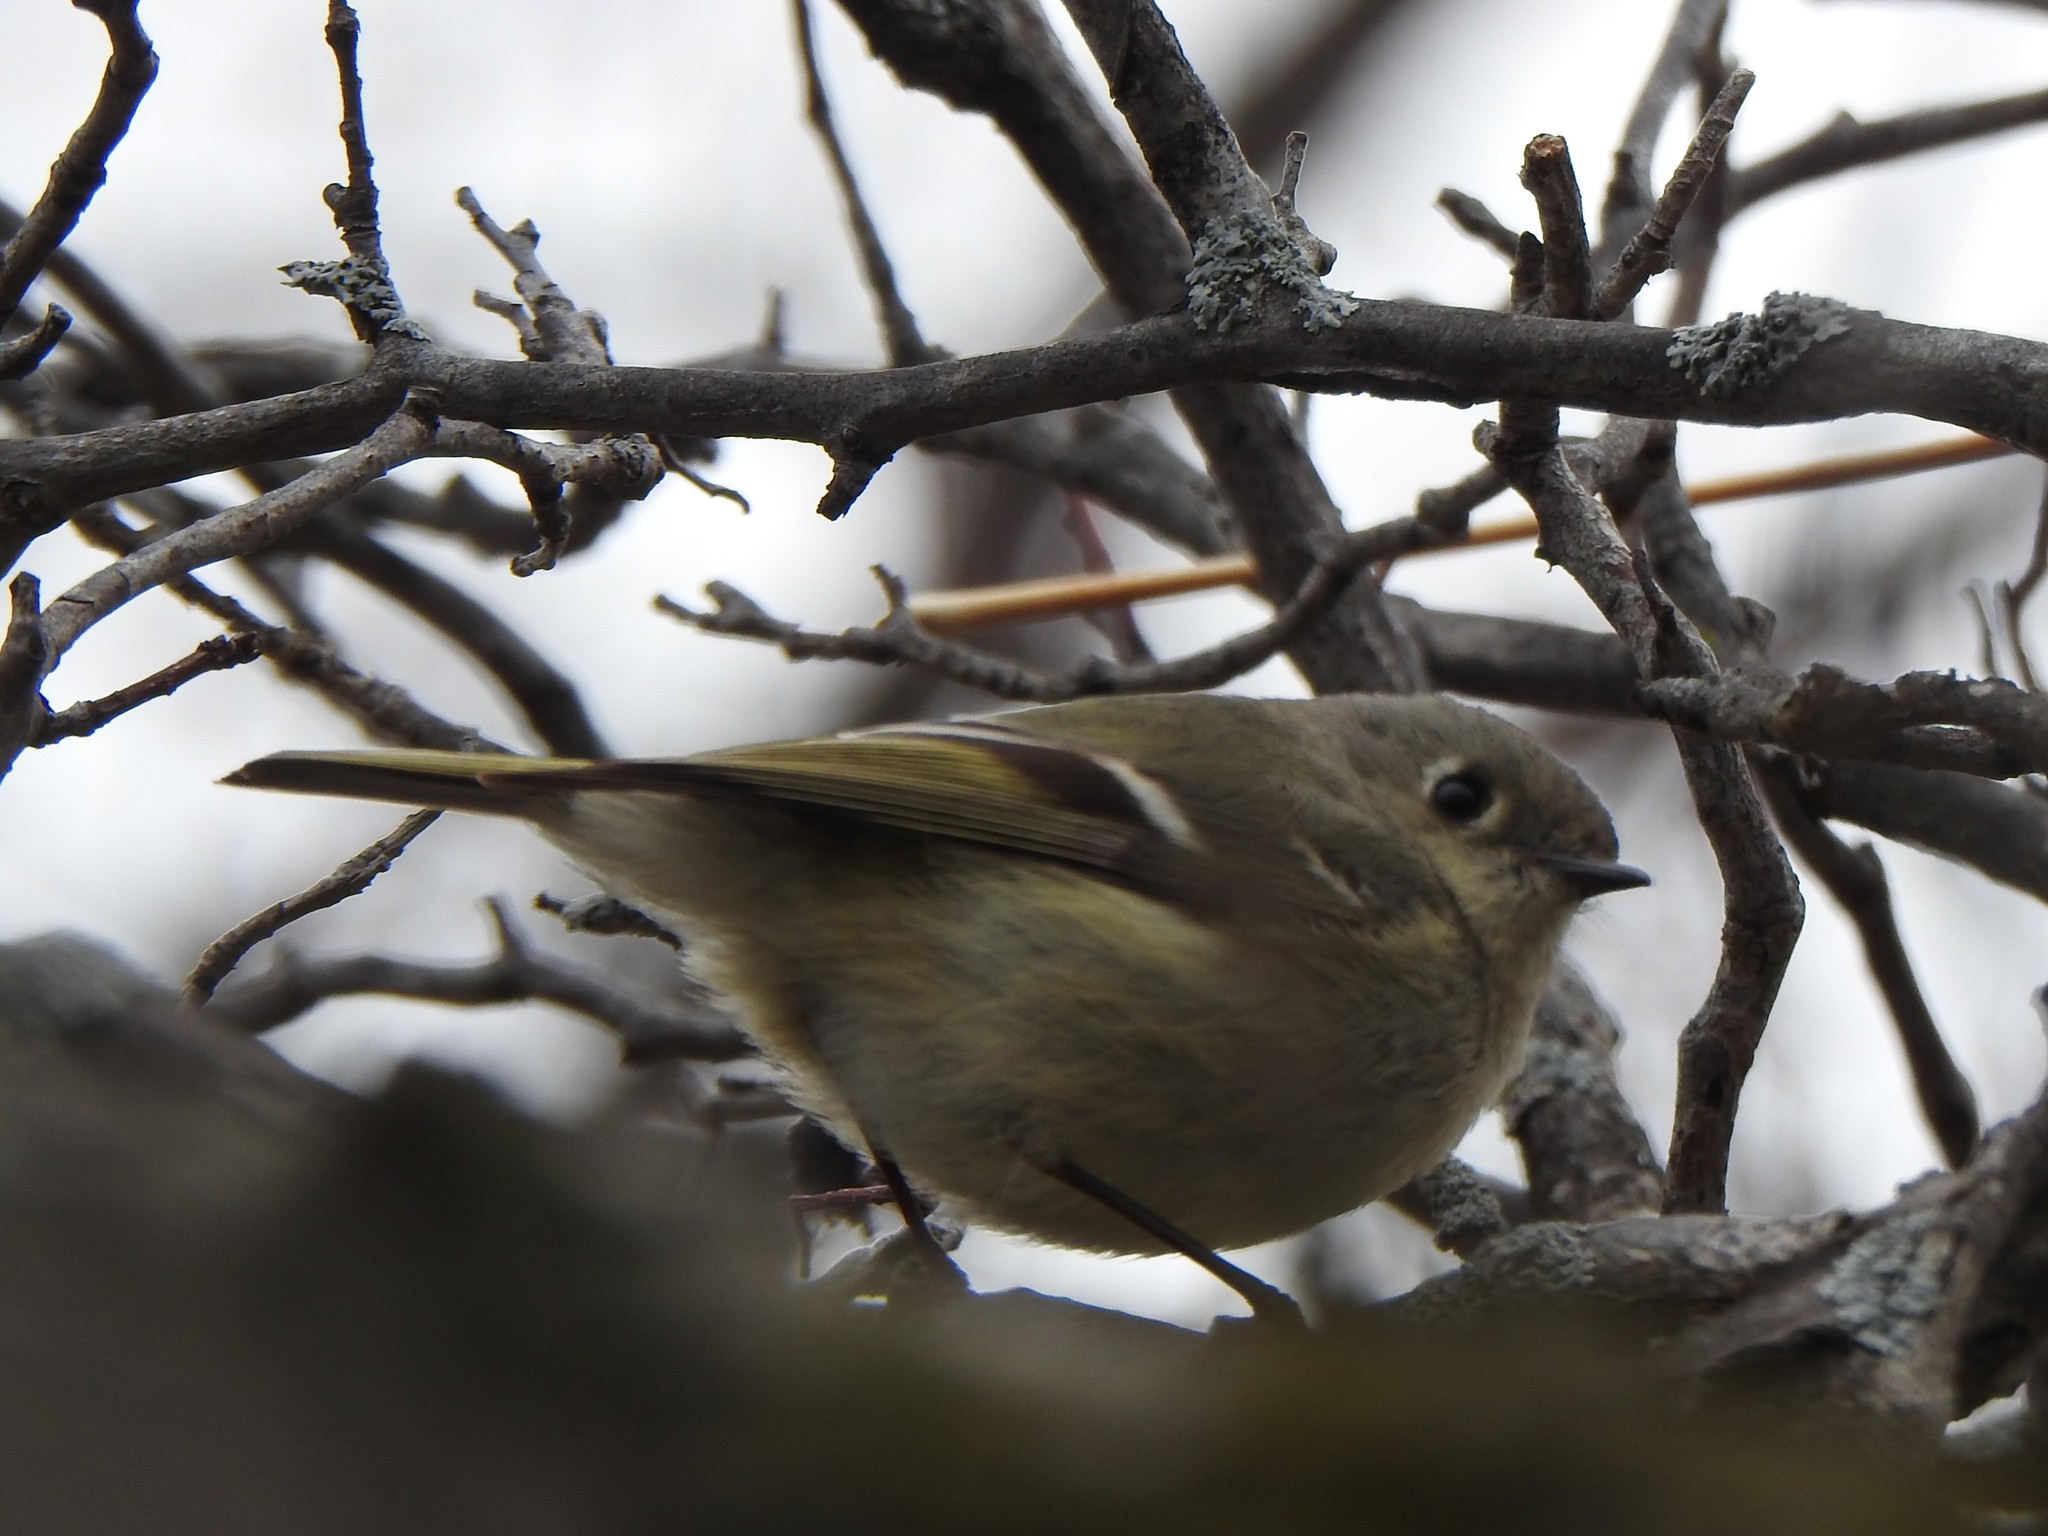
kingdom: Animalia
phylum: Chordata
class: Aves
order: Passeriformes
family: Regulidae
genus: Regulus
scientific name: Regulus calendula
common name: Ruby-crowned kinglet
